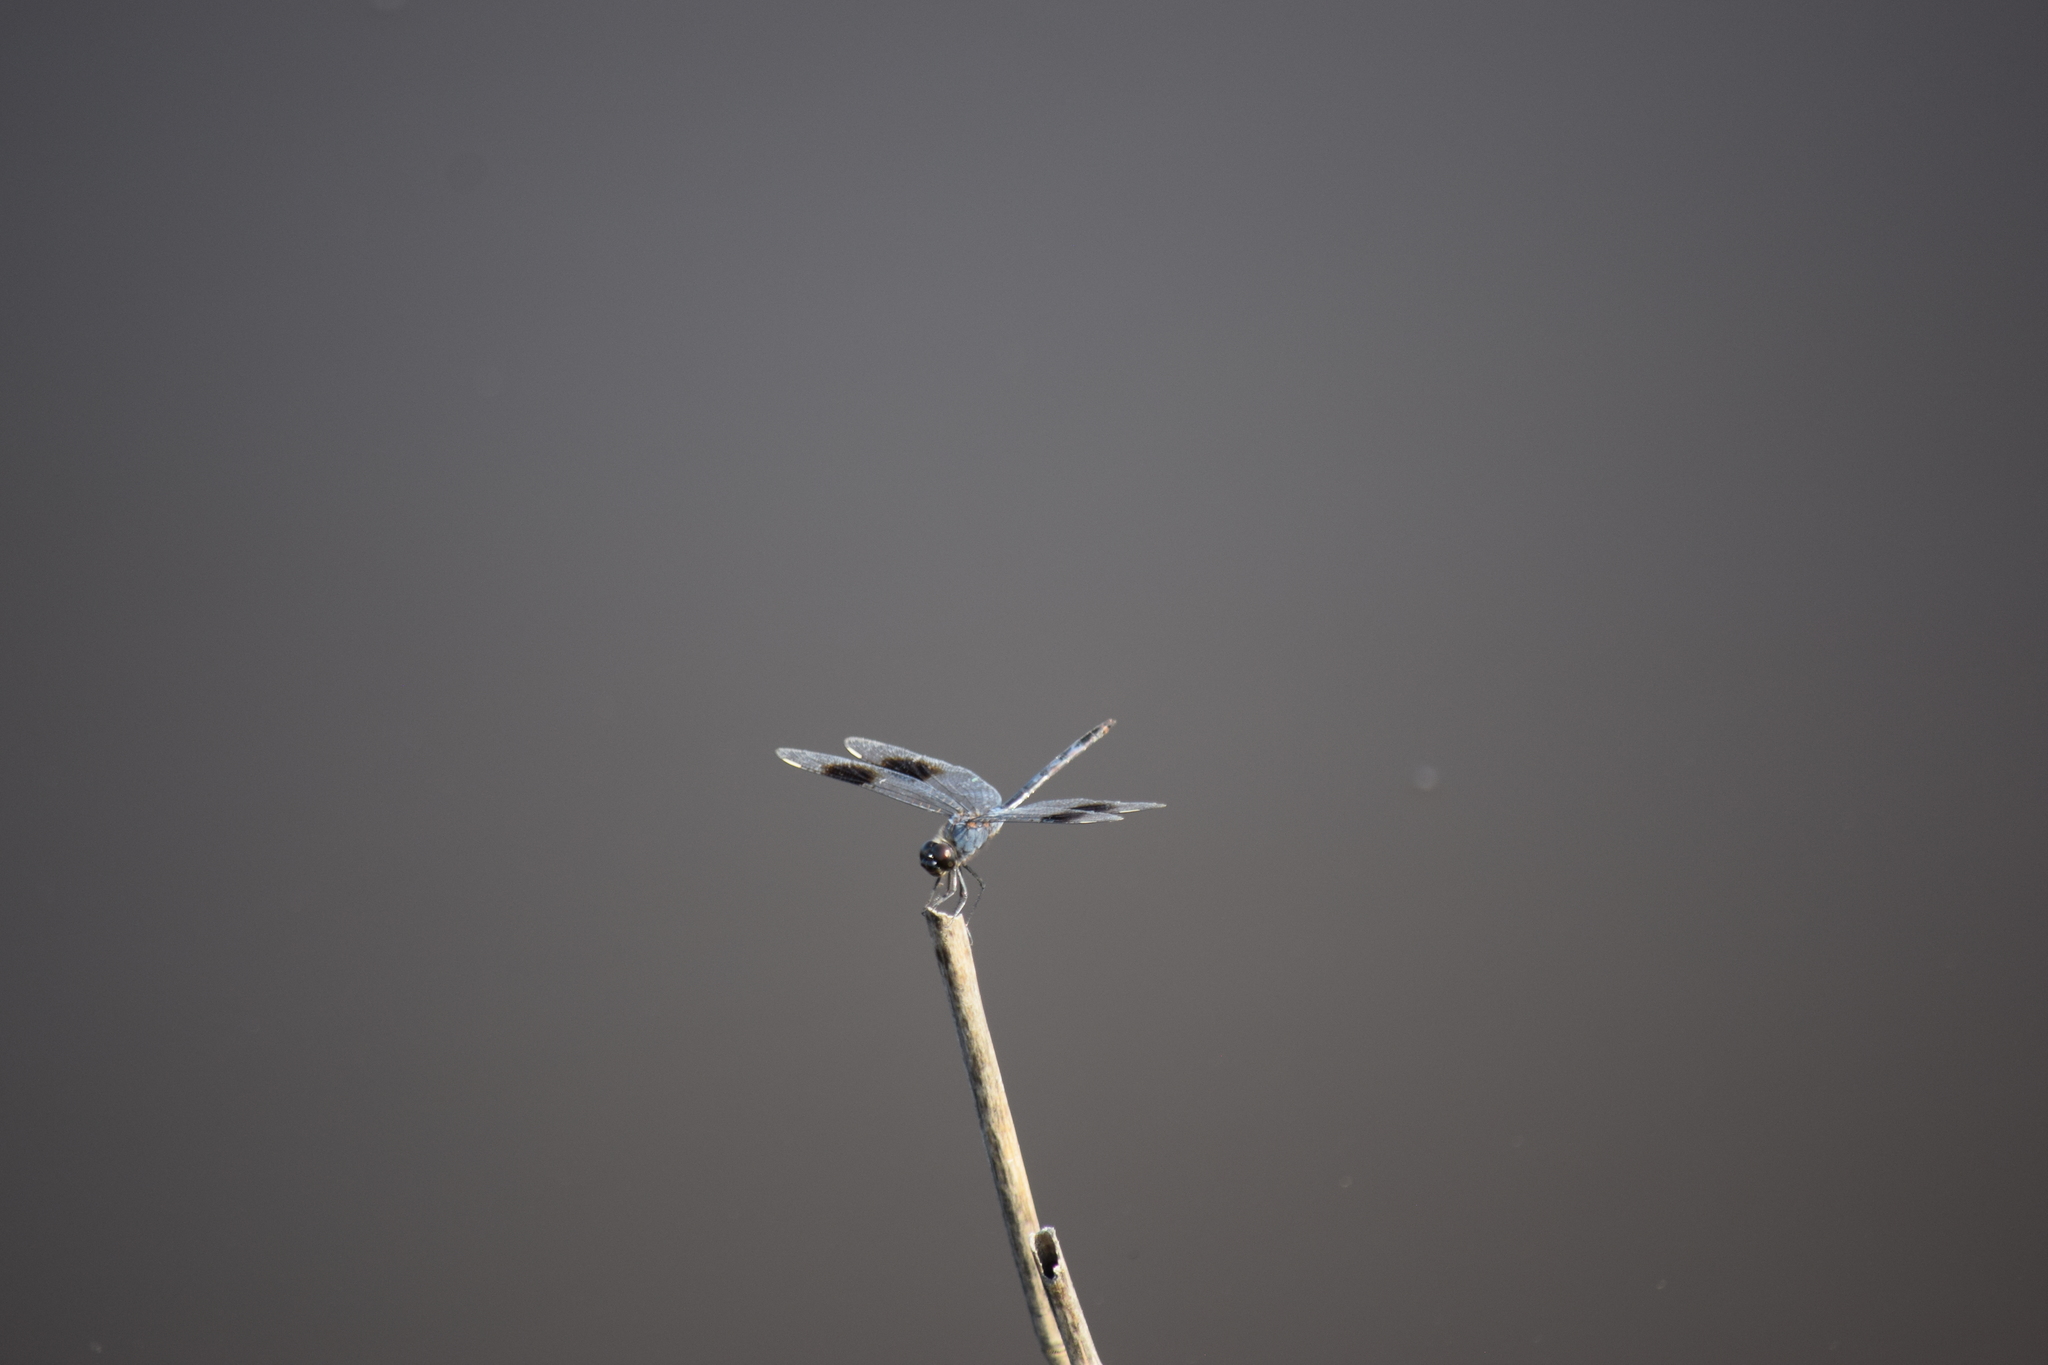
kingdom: Animalia
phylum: Arthropoda
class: Insecta
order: Odonata
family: Libellulidae
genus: Brachymesia
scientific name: Brachymesia gravida
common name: Four-spotted pennant
